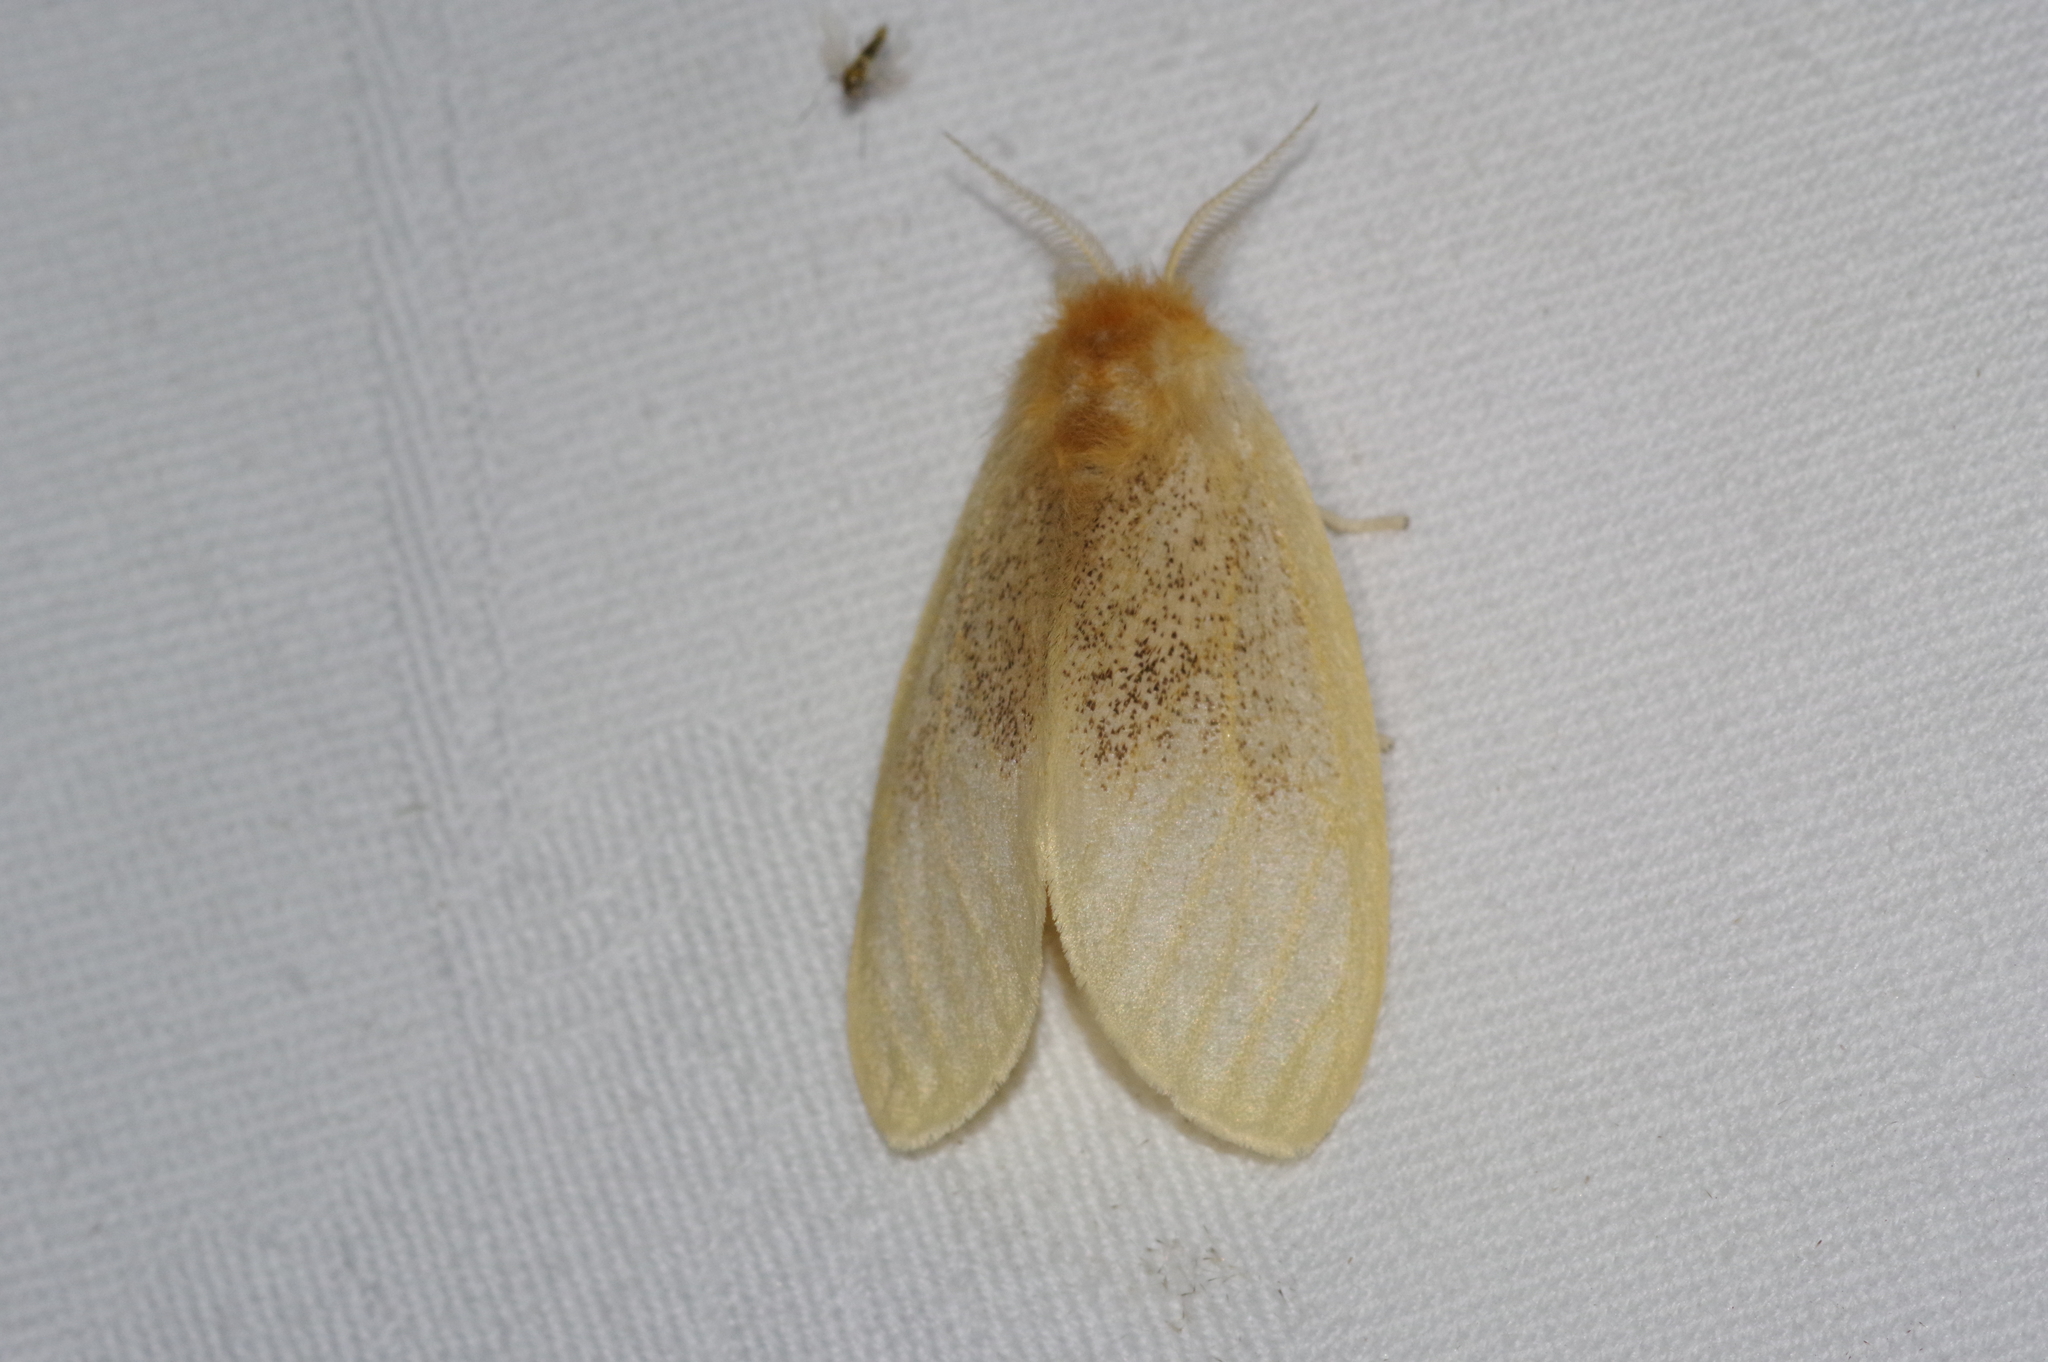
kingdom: Animalia
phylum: Arthropoda
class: Insecta
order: Lepidoptera
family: Erebidae
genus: Perina
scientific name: Perina nuda
